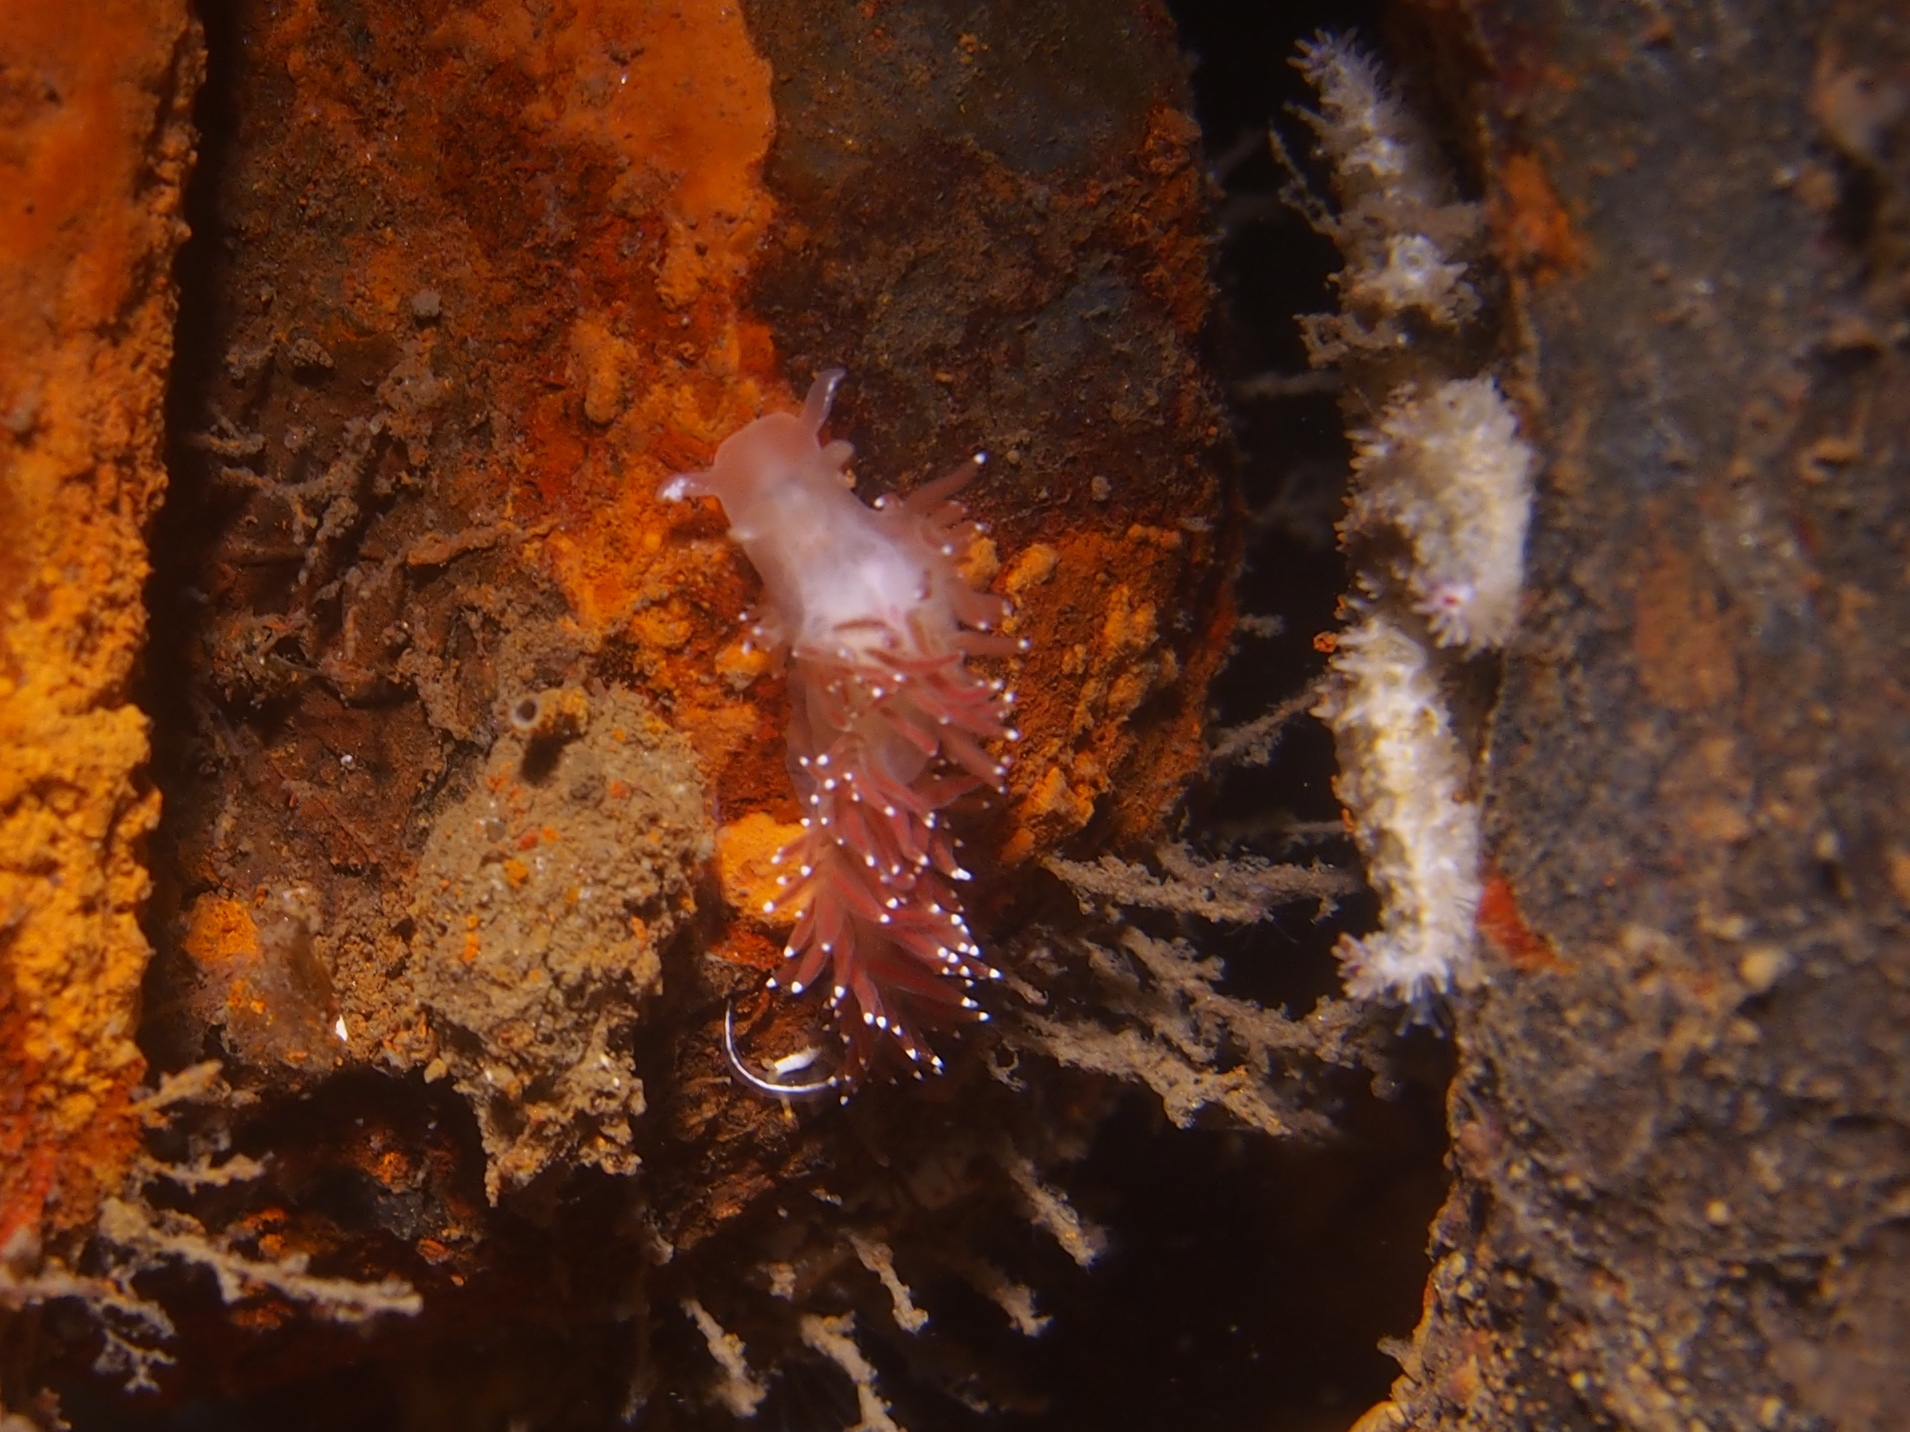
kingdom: Animalia
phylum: Mollusca
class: Gastropoda
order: Nudibranchia
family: Coryphellidae
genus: Coryphella
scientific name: Coryphella verrucosa
